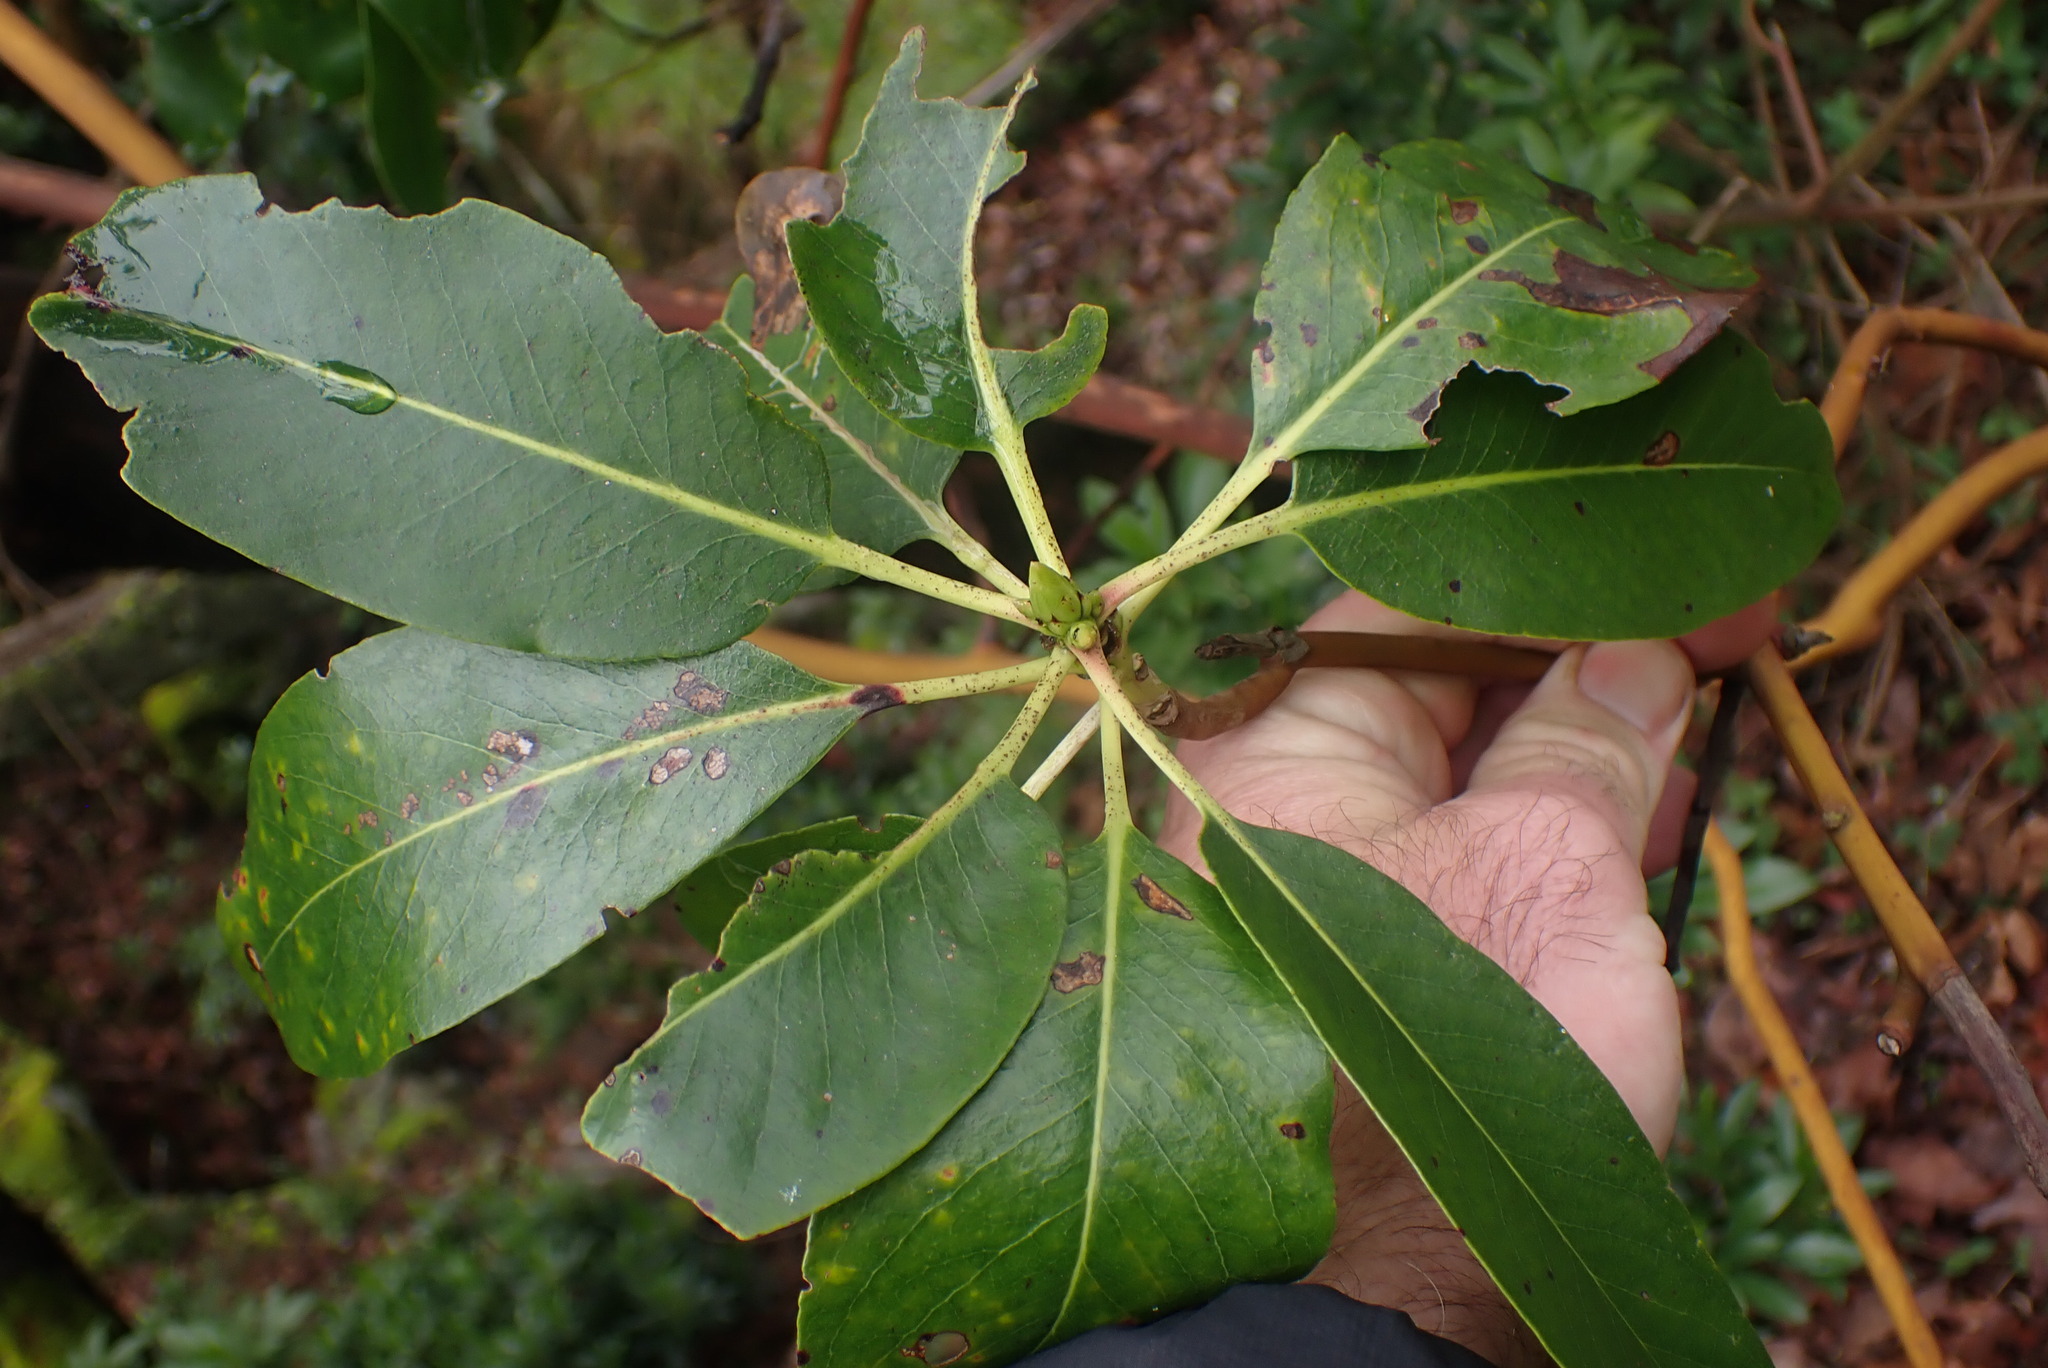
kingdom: Plantae
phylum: Tracheophyta
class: Magnoliopsida
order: Ericales
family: Ericaceae
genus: Arbutus
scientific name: Arbutus menziesii
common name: Pacific madrone
